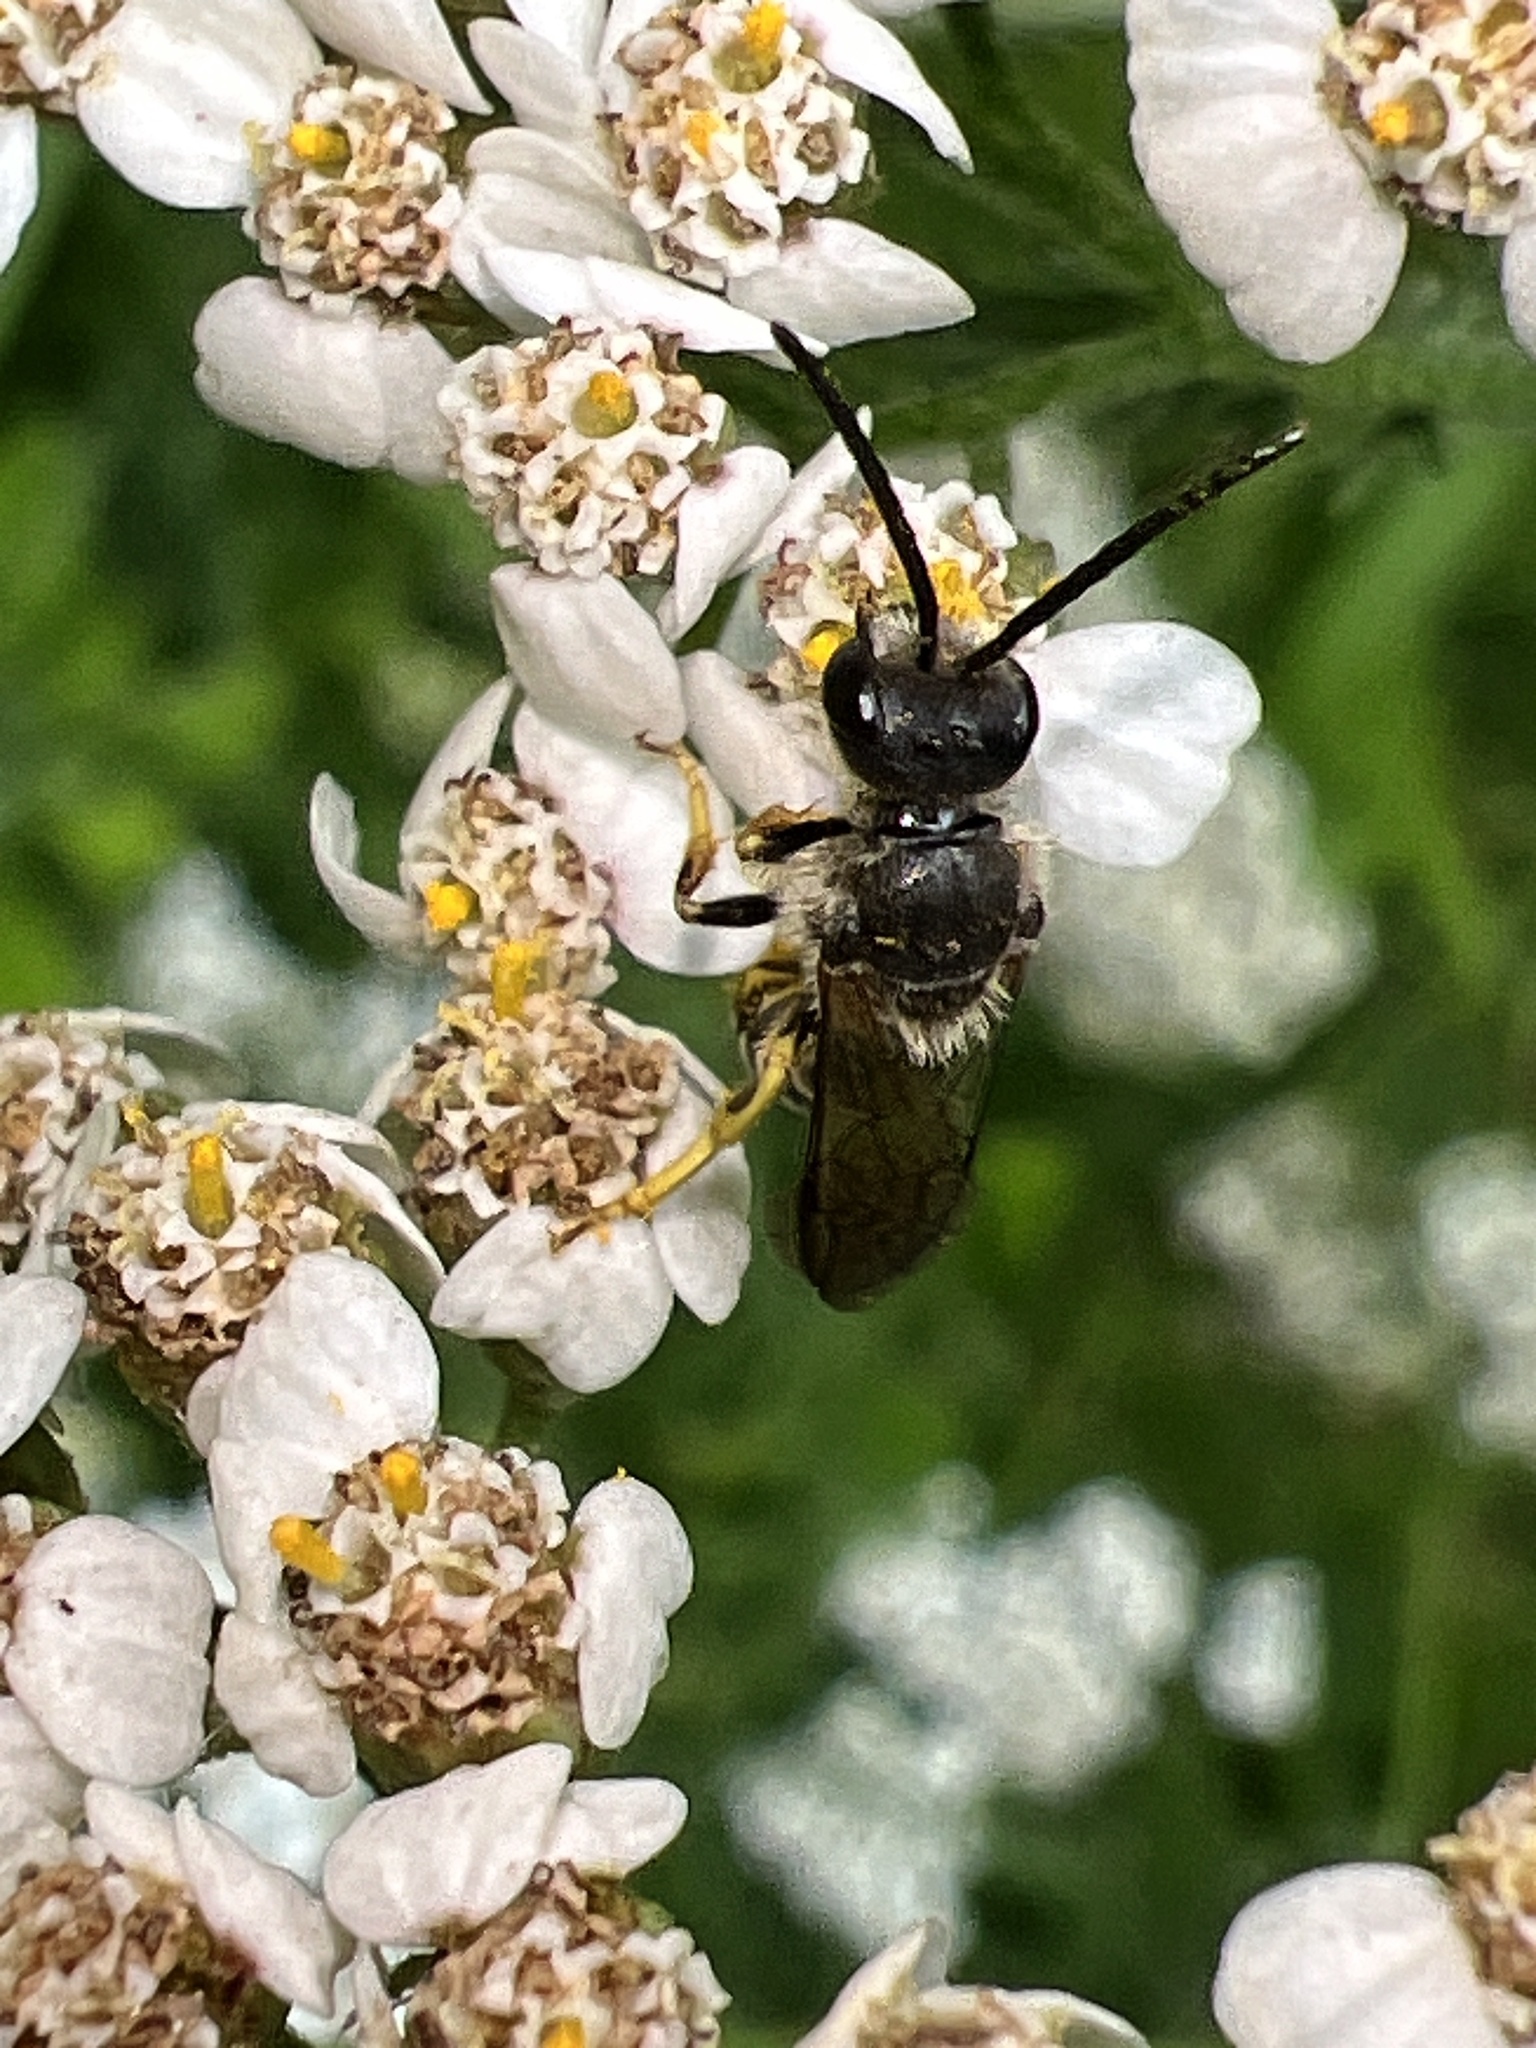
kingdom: Animalia
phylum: Arthropoda
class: Insecta
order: Hymenoptera
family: Halictidae
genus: Halictus
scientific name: Halictus rubicundus
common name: Orange-legged furrow bee
